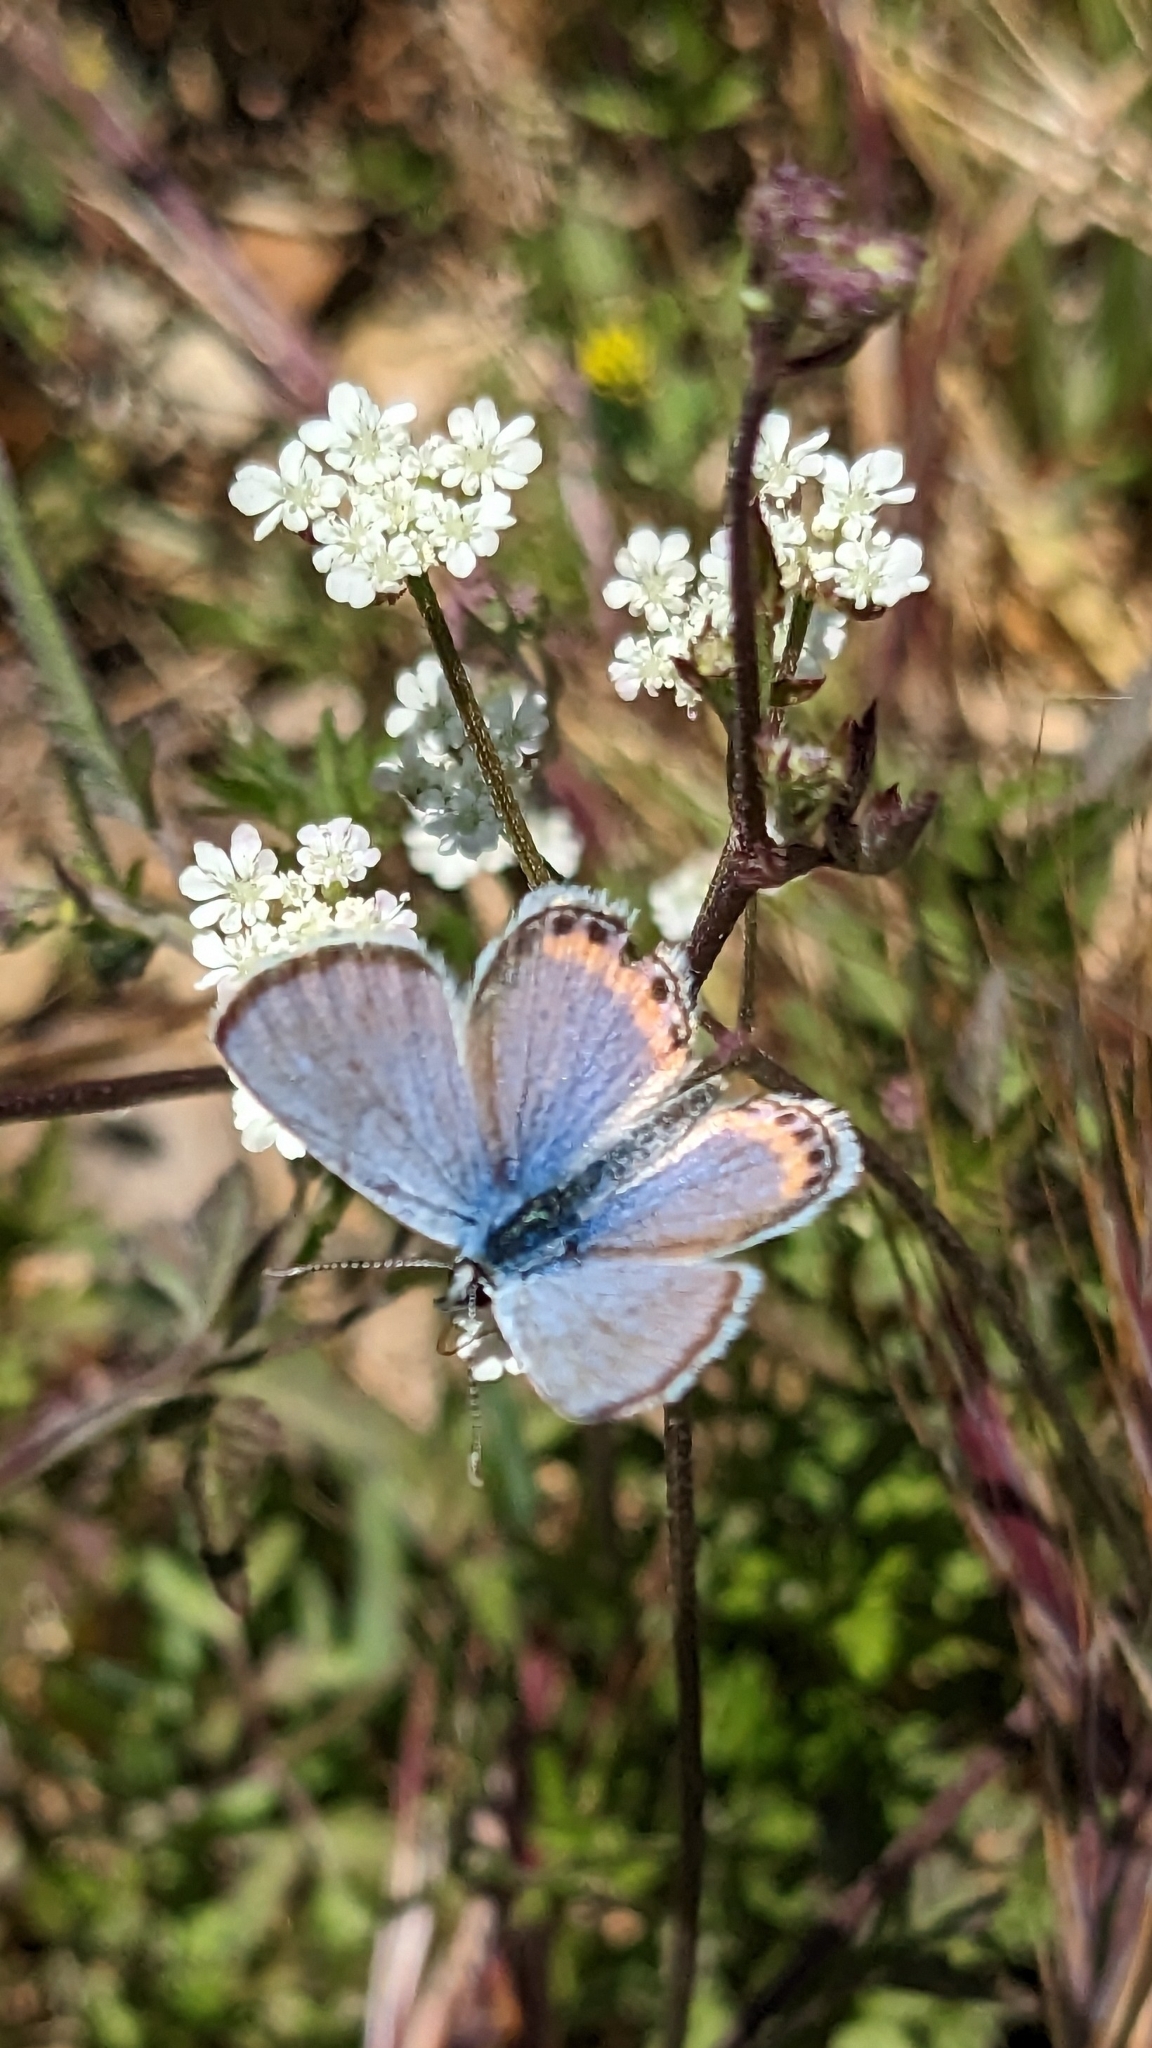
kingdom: Animalia
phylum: Arthropoda
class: Insecta
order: Lepidoptera
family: Lycaenidae
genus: Icaricia
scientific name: Icaricia acmon
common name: Acmon blue
